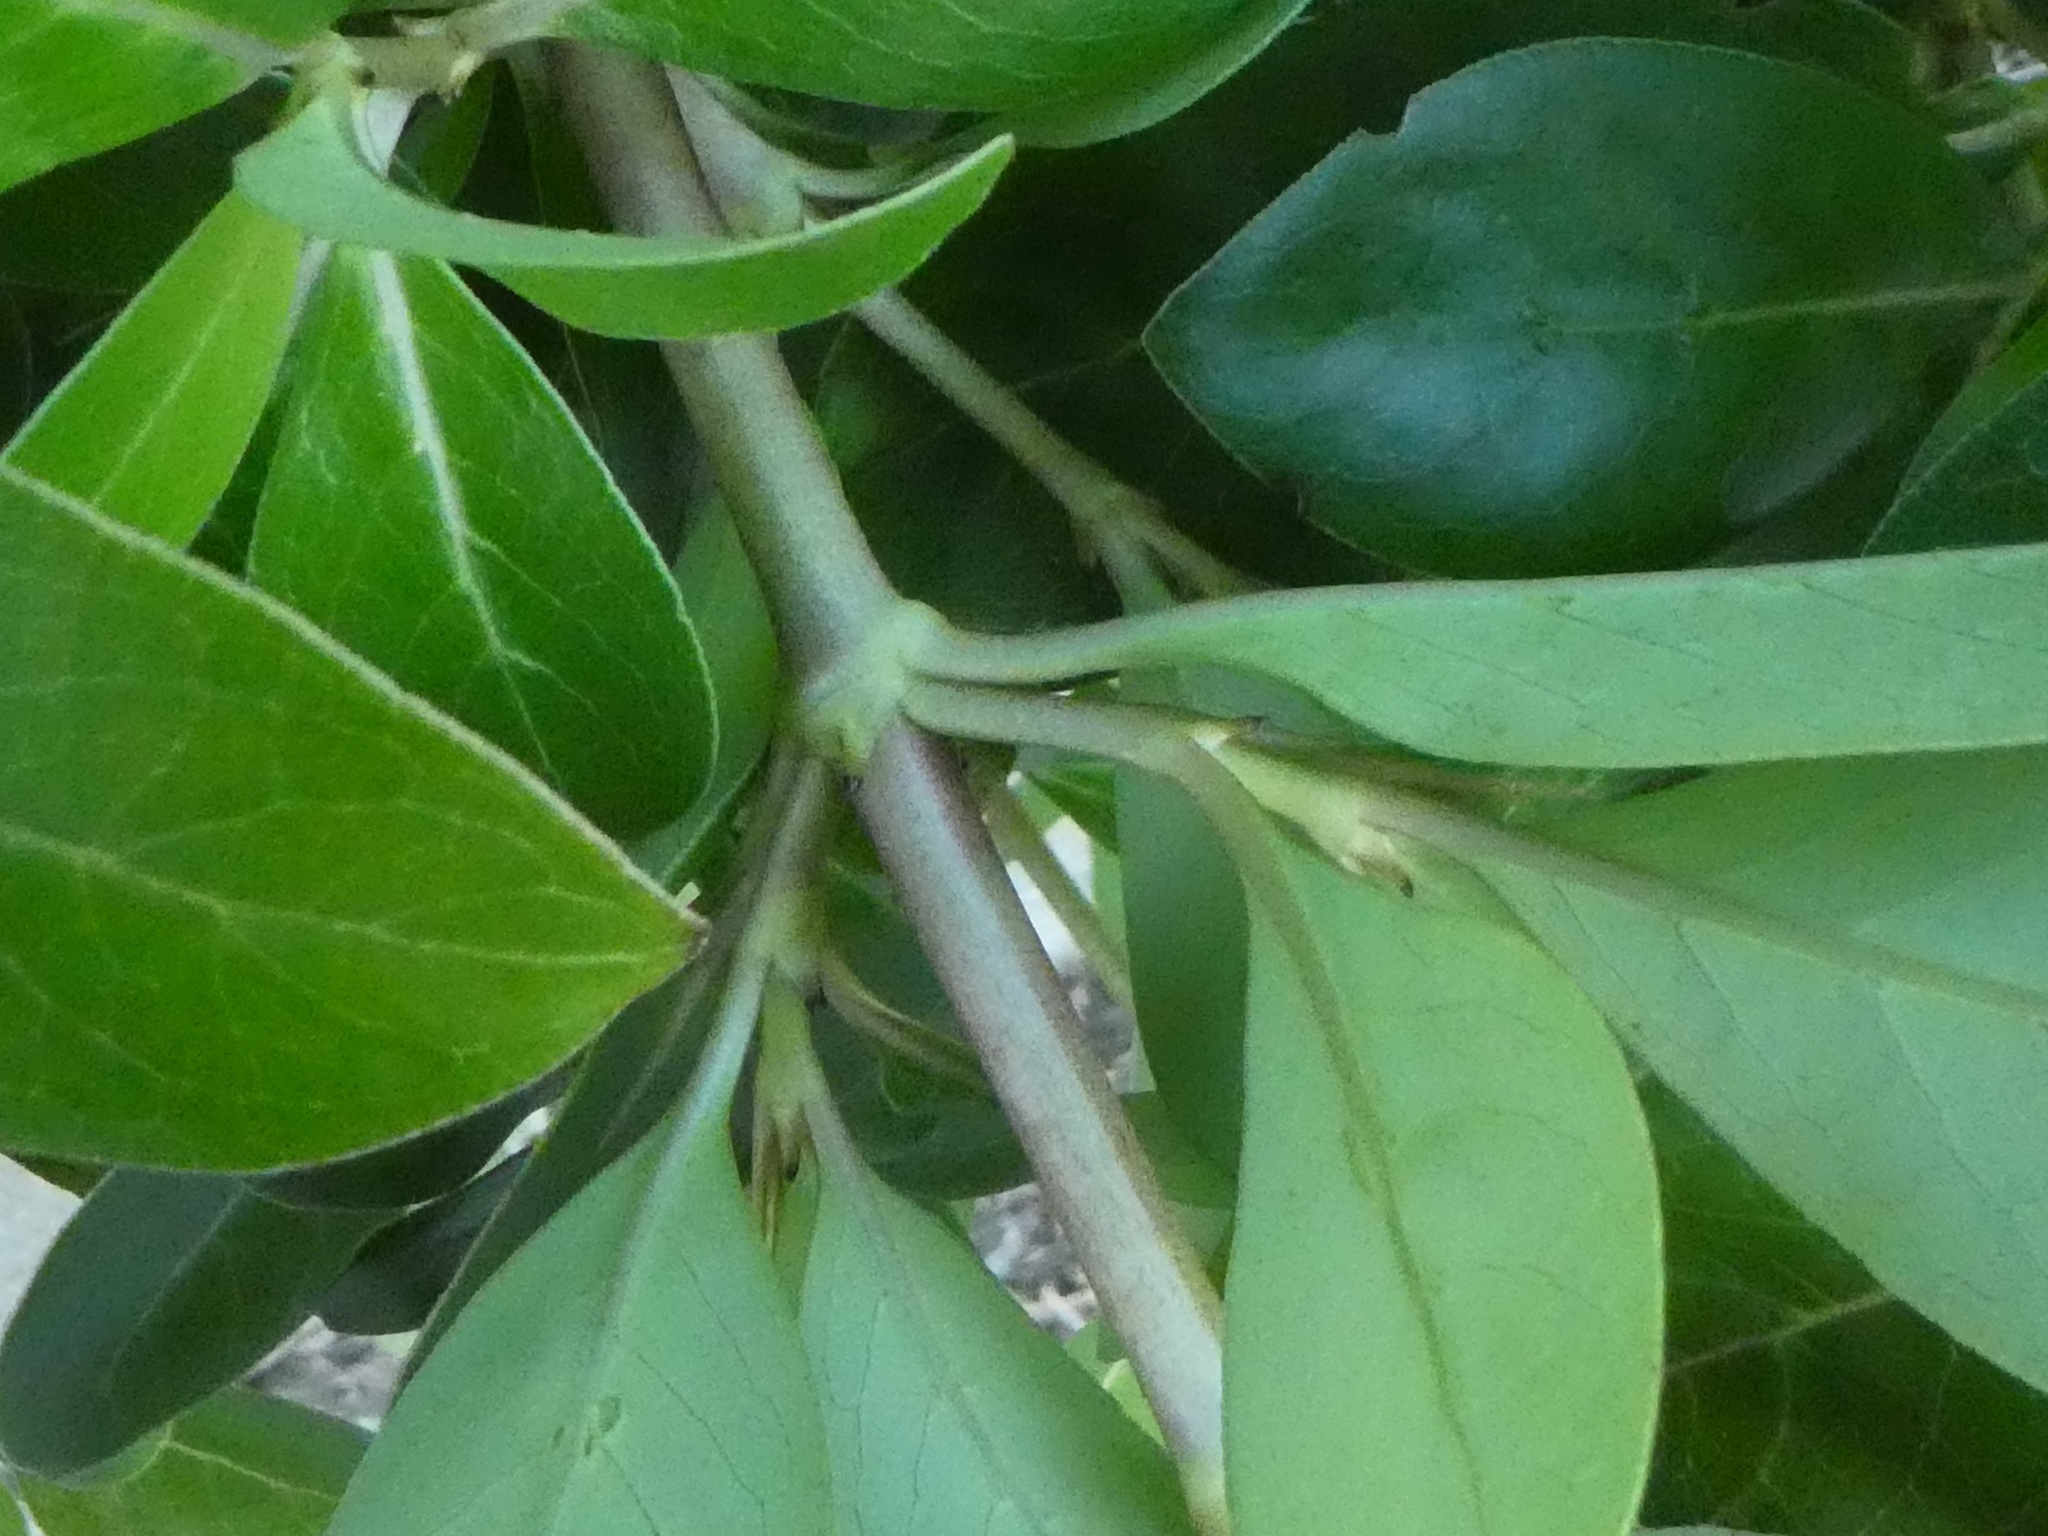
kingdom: Plantae
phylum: Tracheophyta
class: Magnoliopsida
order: Gentianales
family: Rubiaceae
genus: Coprosma
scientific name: Coprosma robusta
